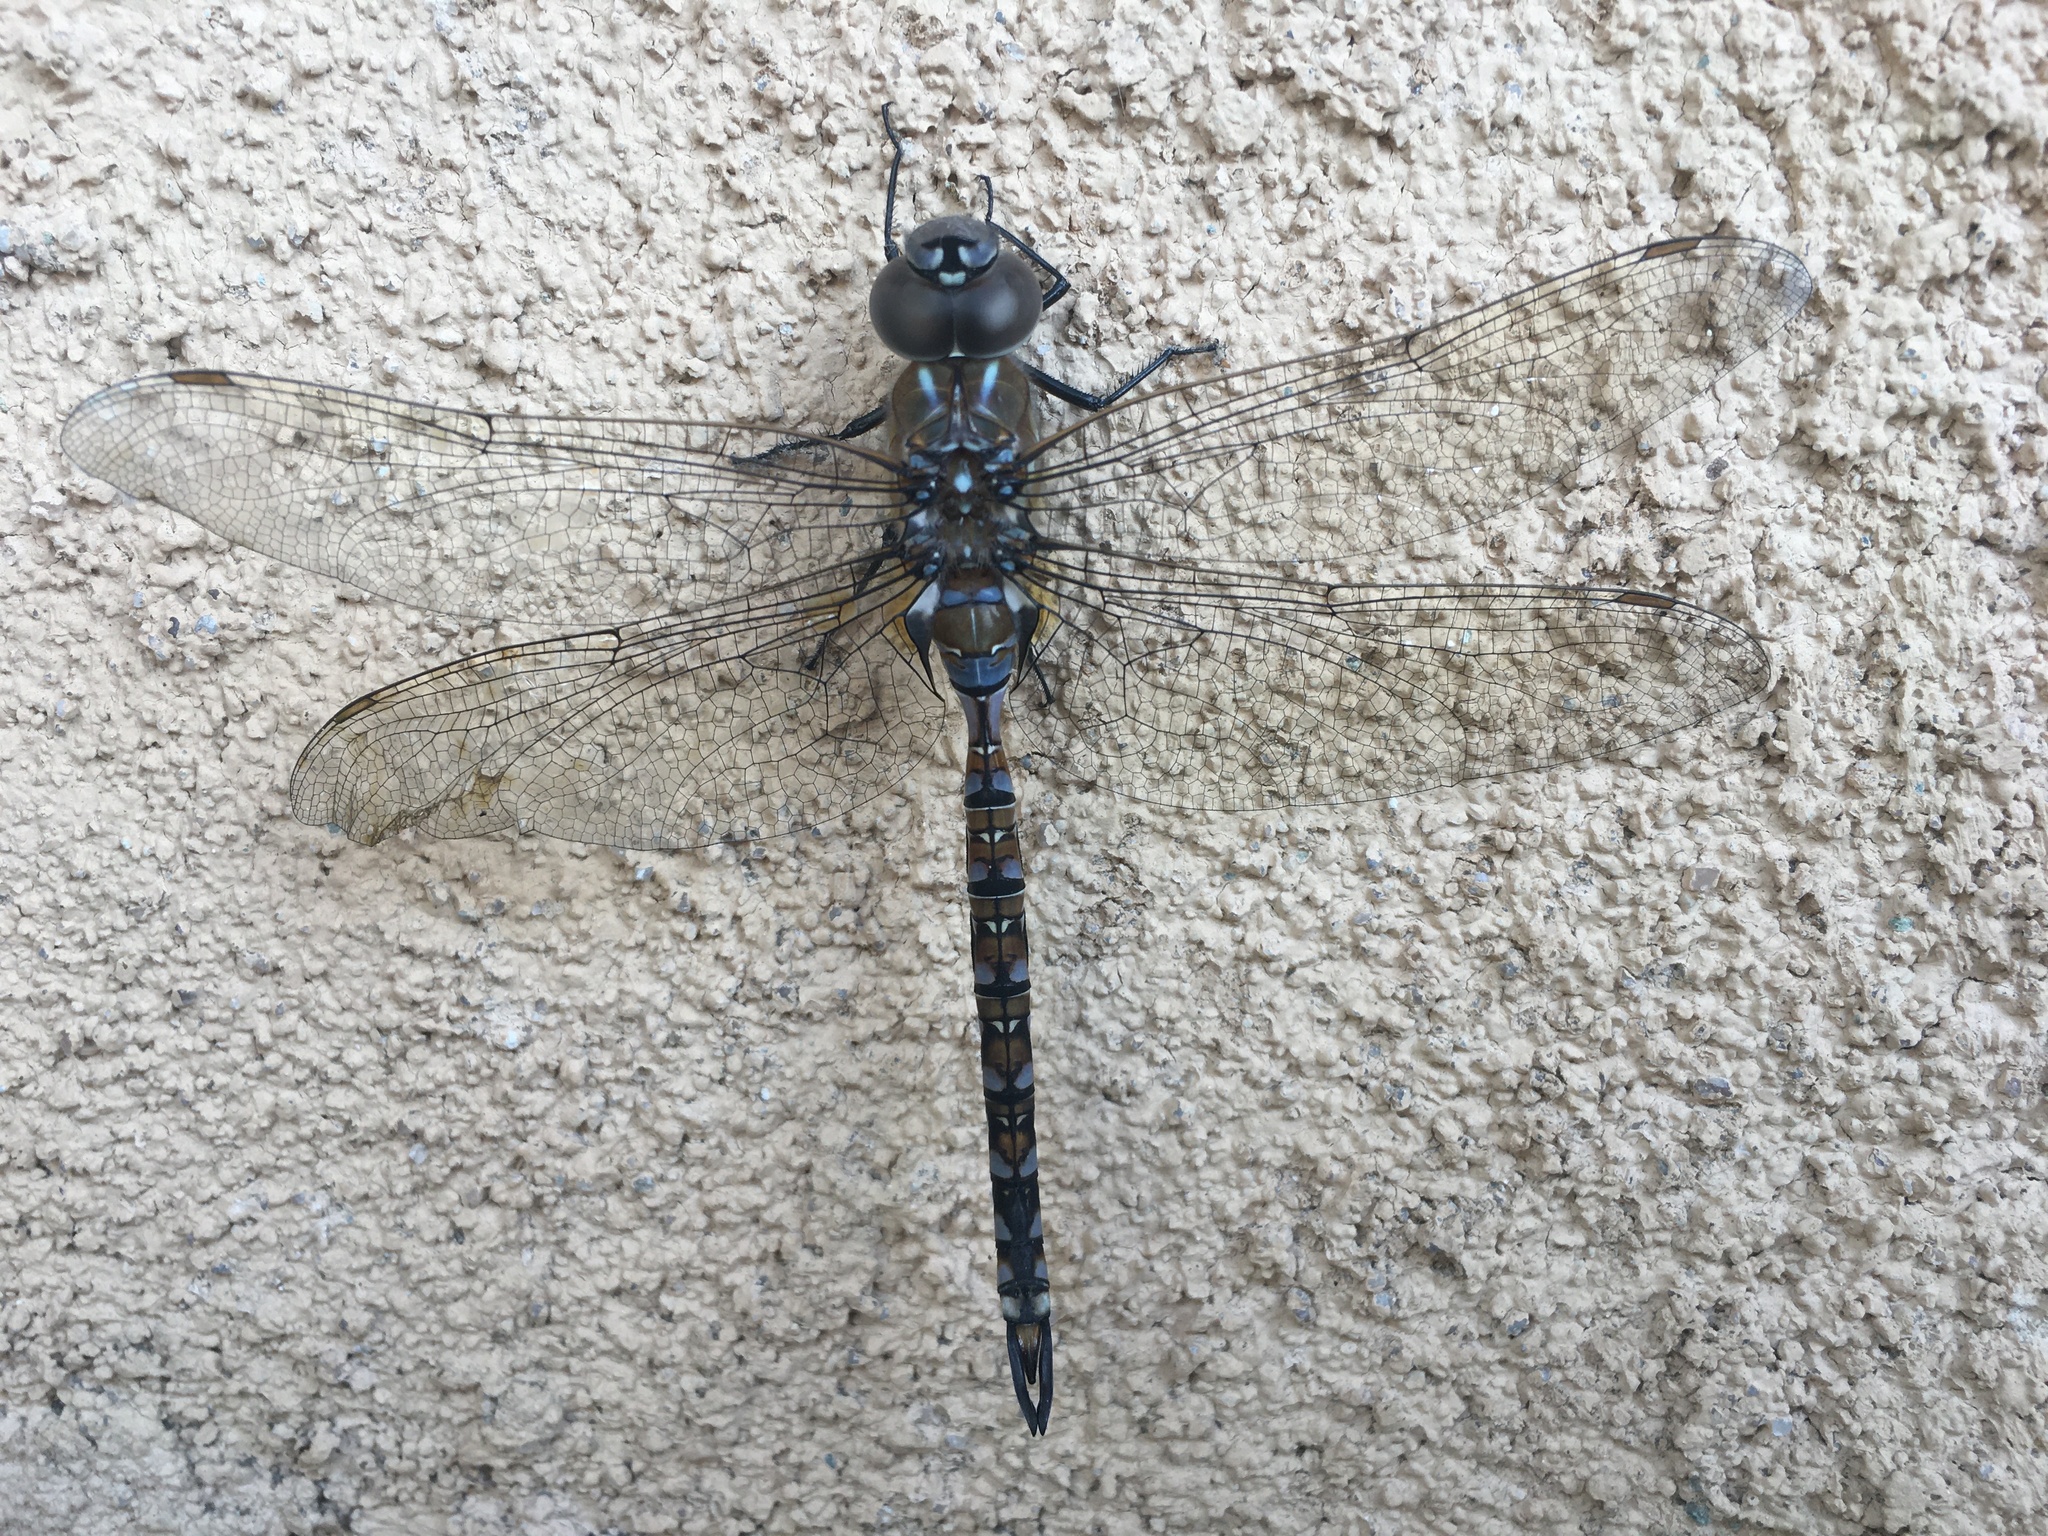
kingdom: Animalia
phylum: Arthropoda
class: Insecta
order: Odonata
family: Aeshnidae
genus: Rhionaeschna
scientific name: Rhionaeschna multicolor
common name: Blue-eyed darner
